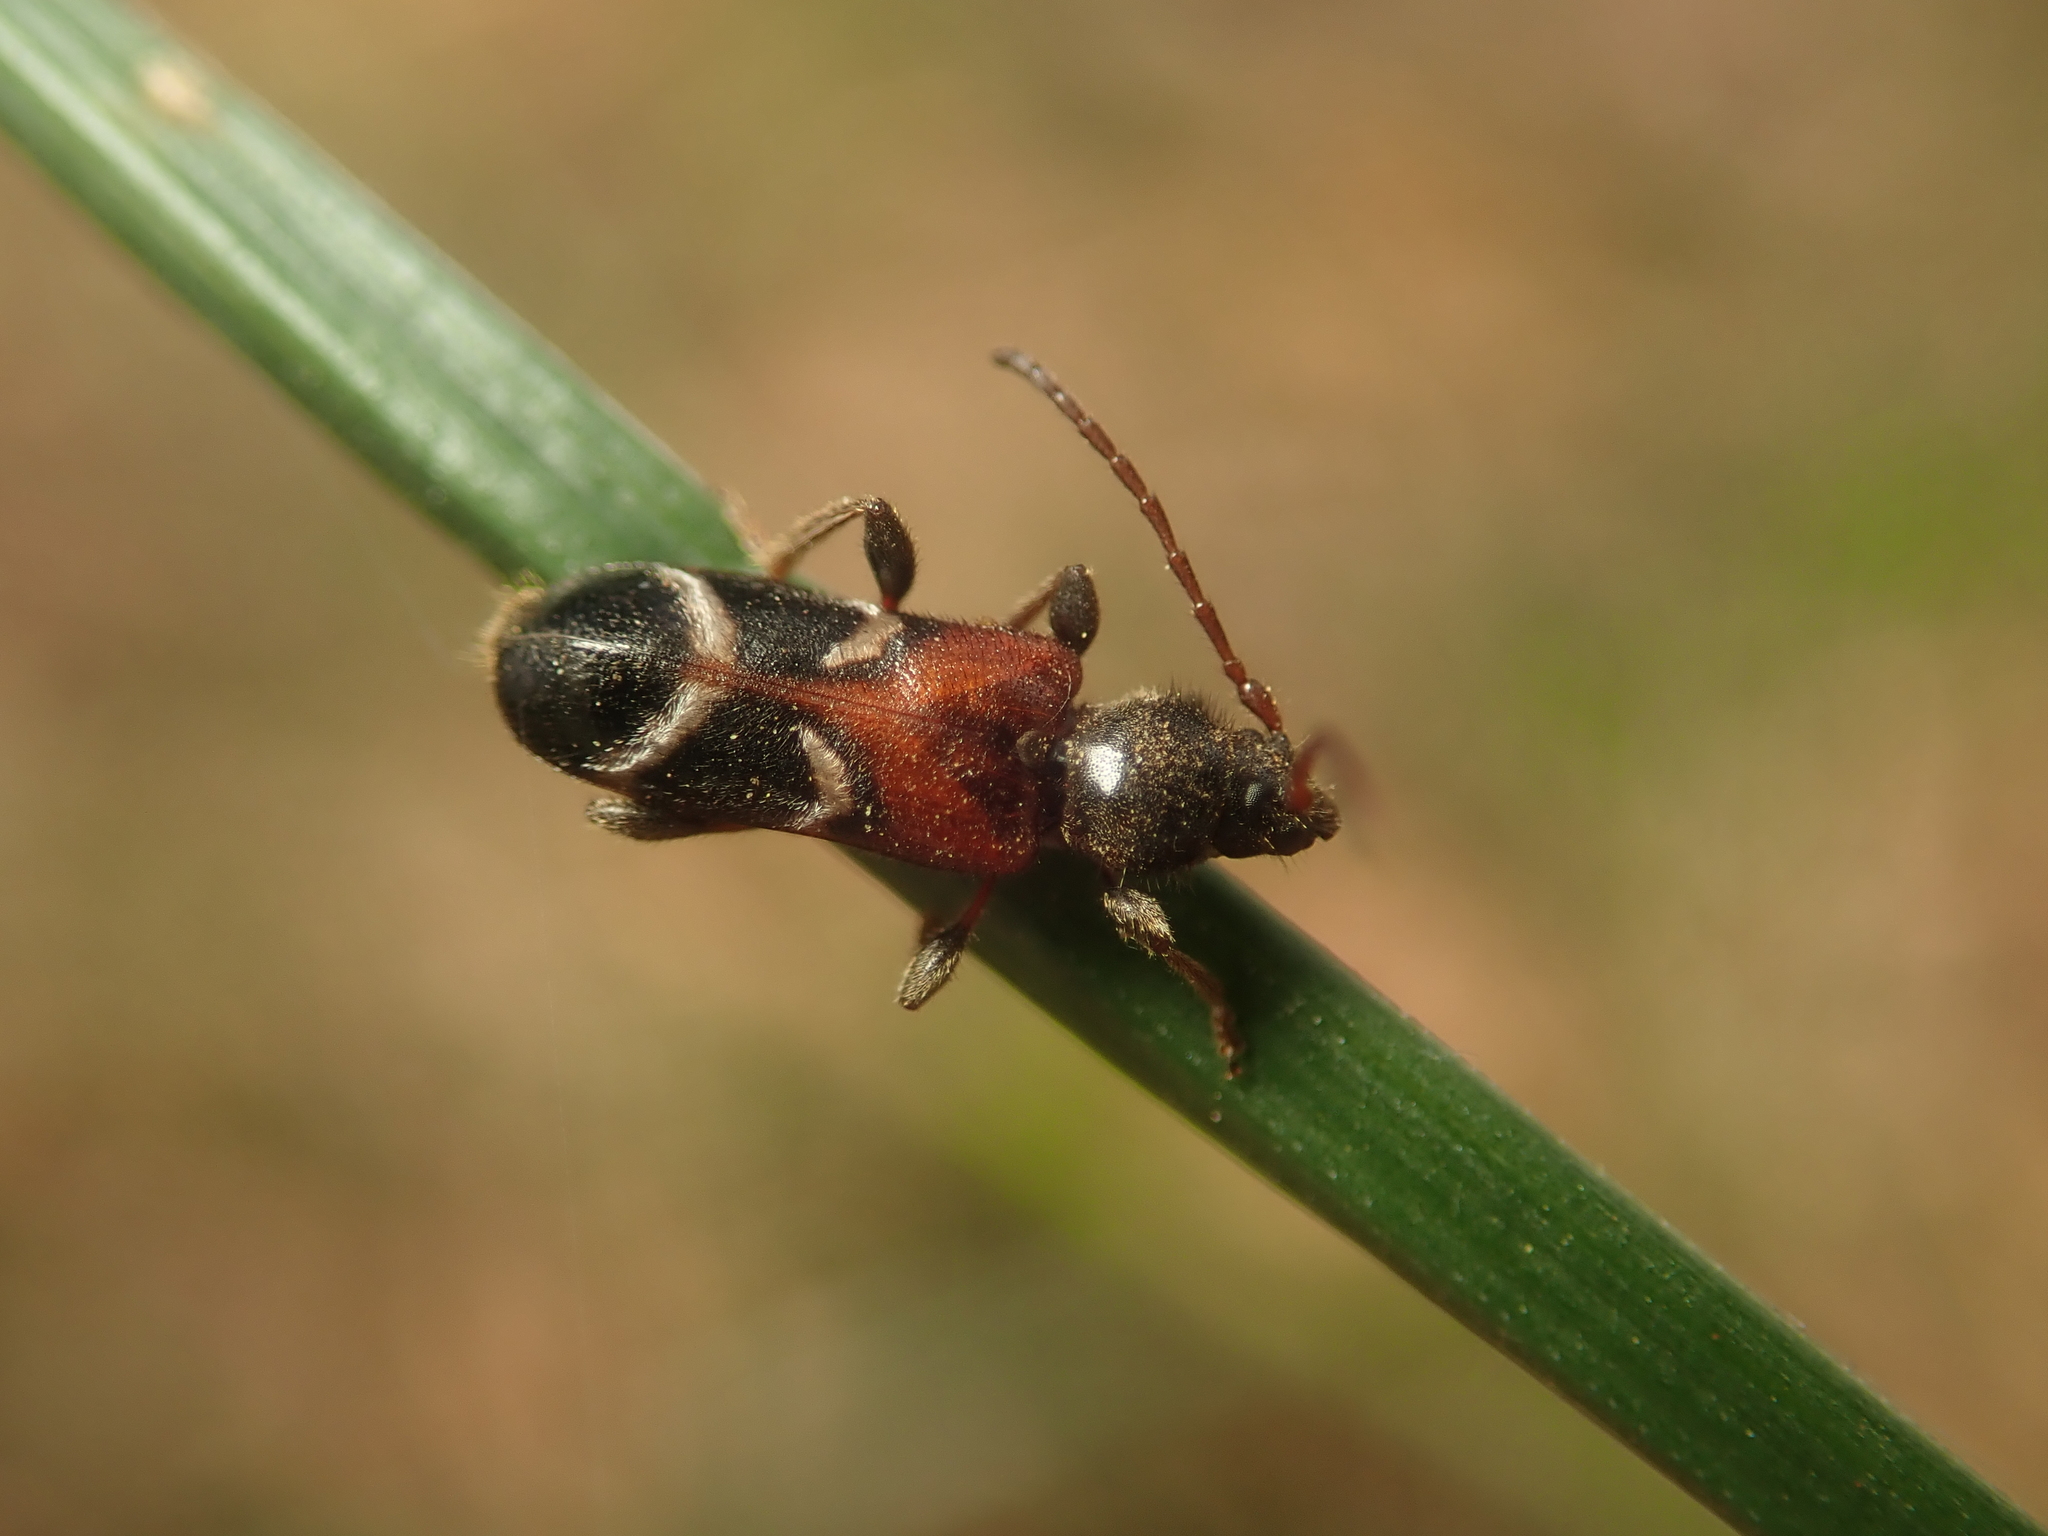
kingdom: Animalia
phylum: Arthropoda
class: Insecta
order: Coleoptera
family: Cerambycidae
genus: Poecilium
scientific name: Poecilium alni
